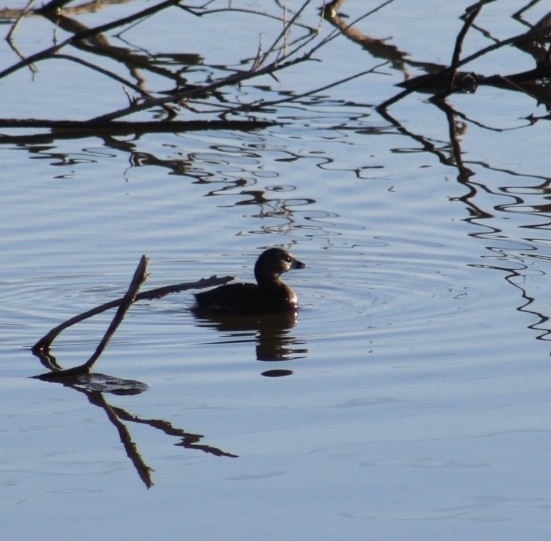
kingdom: Animalia
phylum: Chordata
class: Aves
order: Podicipediformes
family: Podicipedidae
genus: Podilymbus
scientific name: Podilymbus podiceps
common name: Pied-billed grebe
